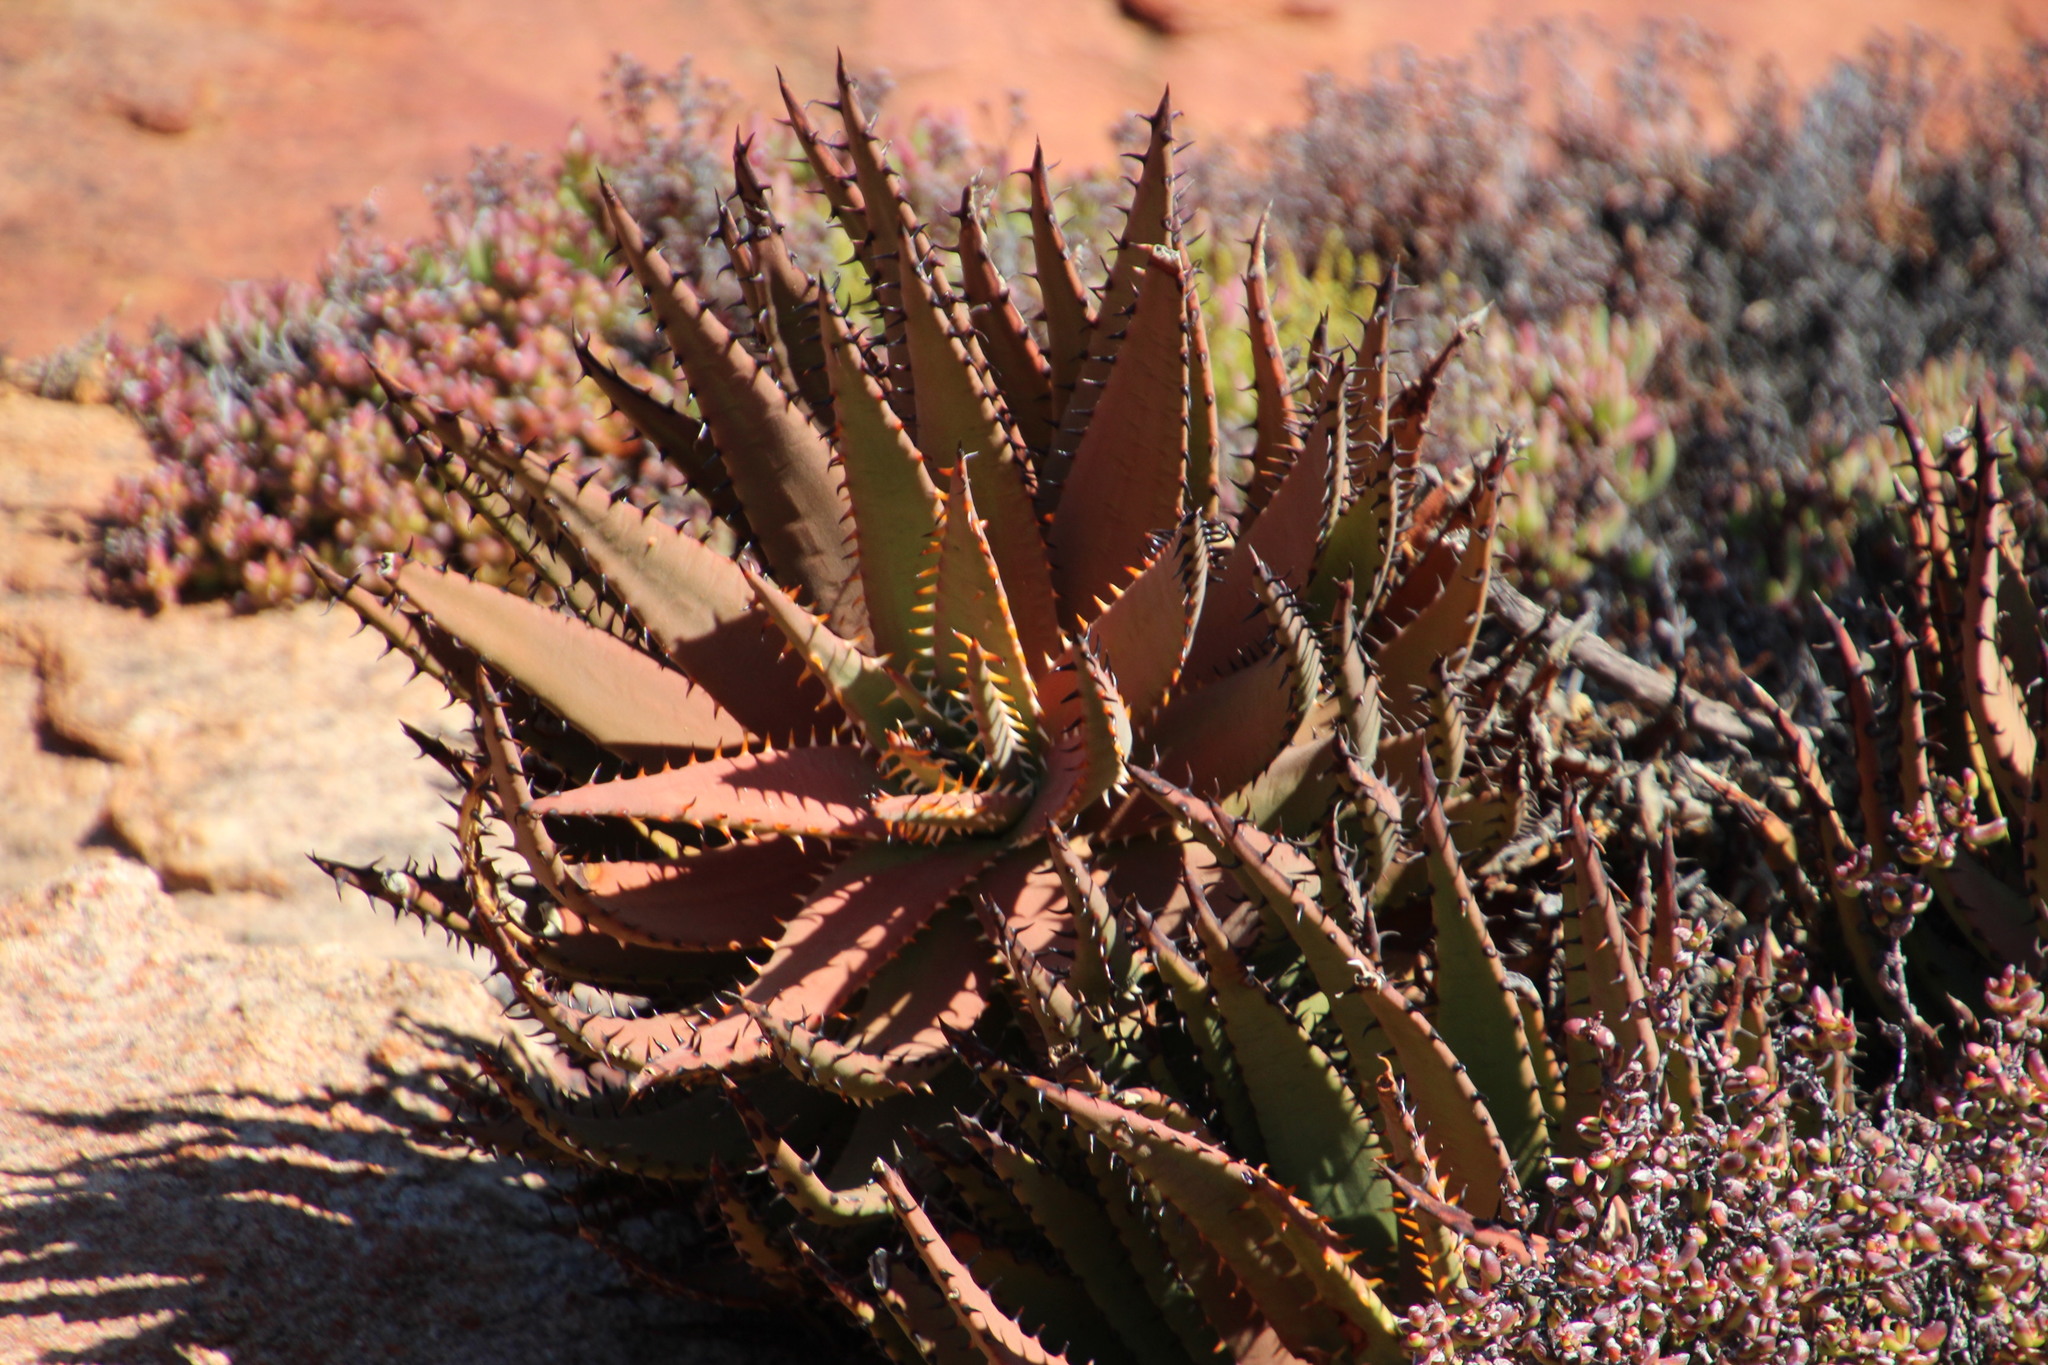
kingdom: Plantae
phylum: Tracheophyta
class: Liliopsida
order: Asparagales
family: Asphodelaceae
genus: Aloe
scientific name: Aloe melanacantha
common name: Black thorn aloe
